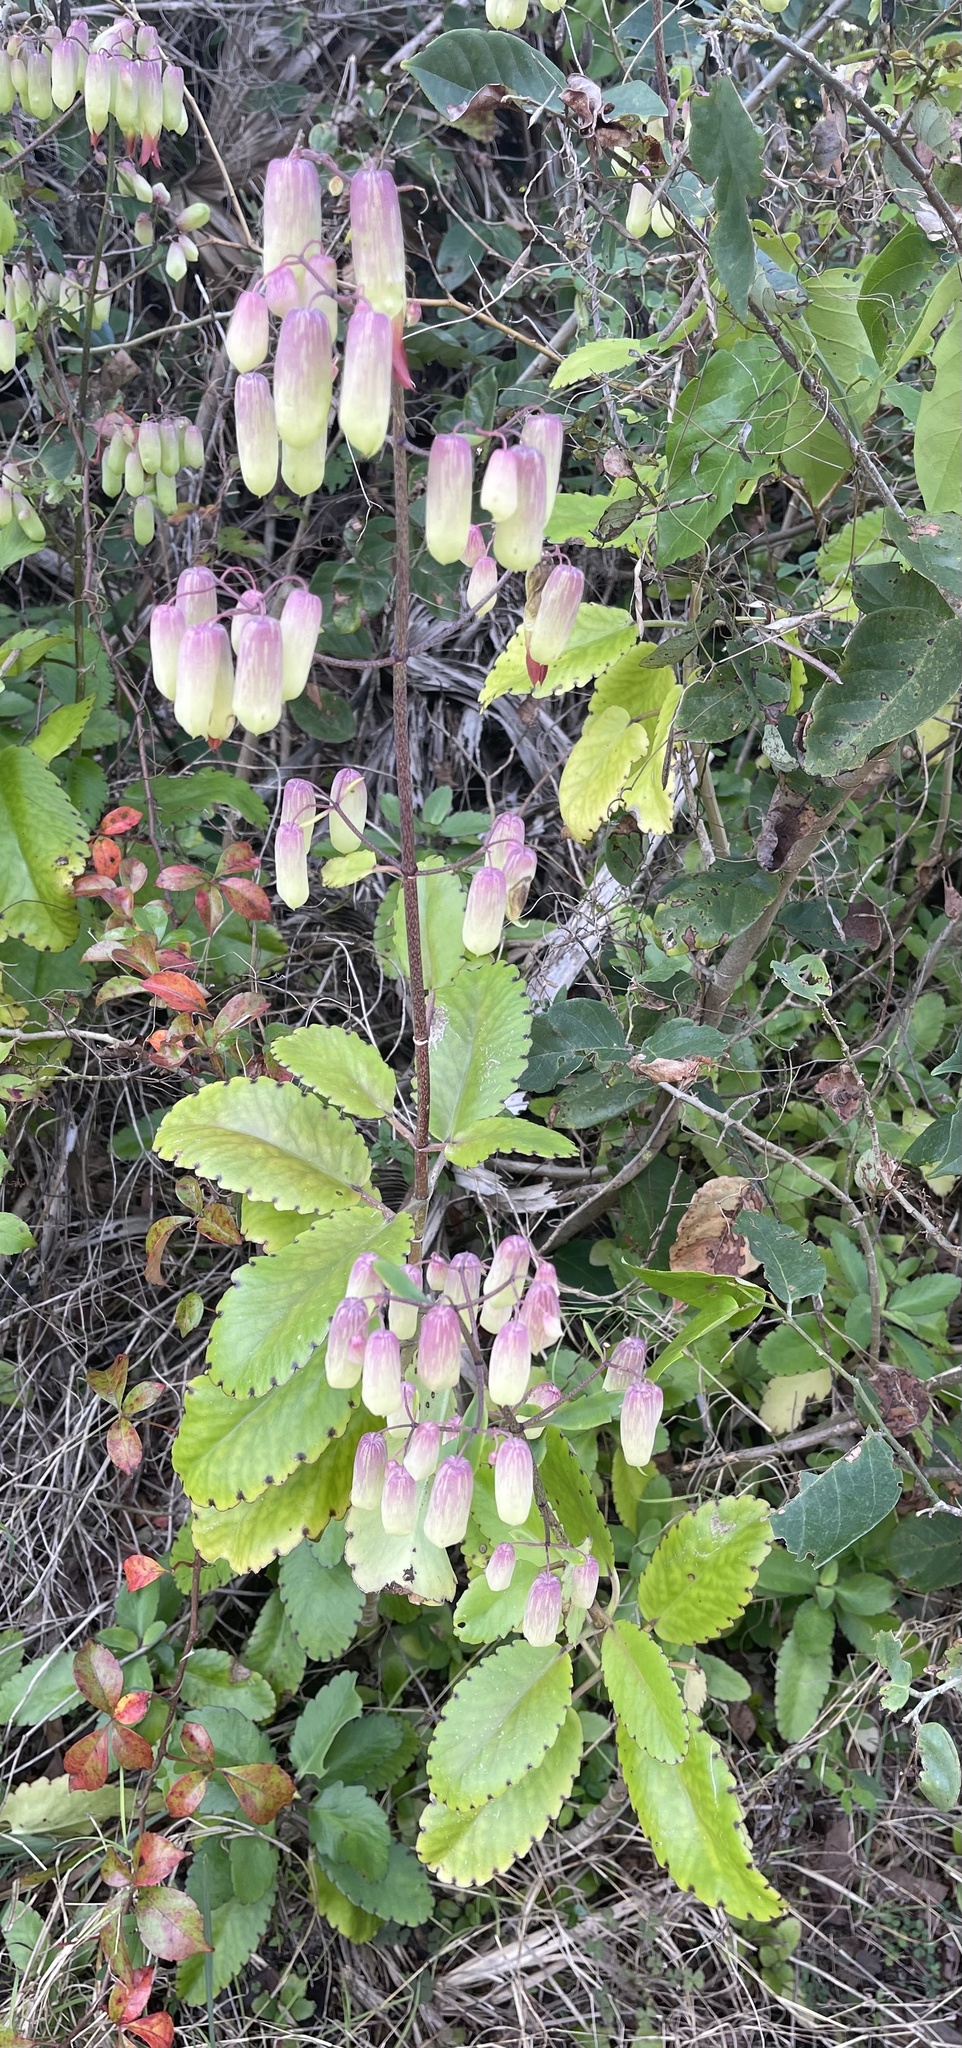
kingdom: Plantae
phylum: Tracheophyta
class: Magnoliopsida
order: Saxifragales
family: Crassulaceae
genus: Kalanchoe
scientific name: Kalanchoe pinnata
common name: Cathedral bells
